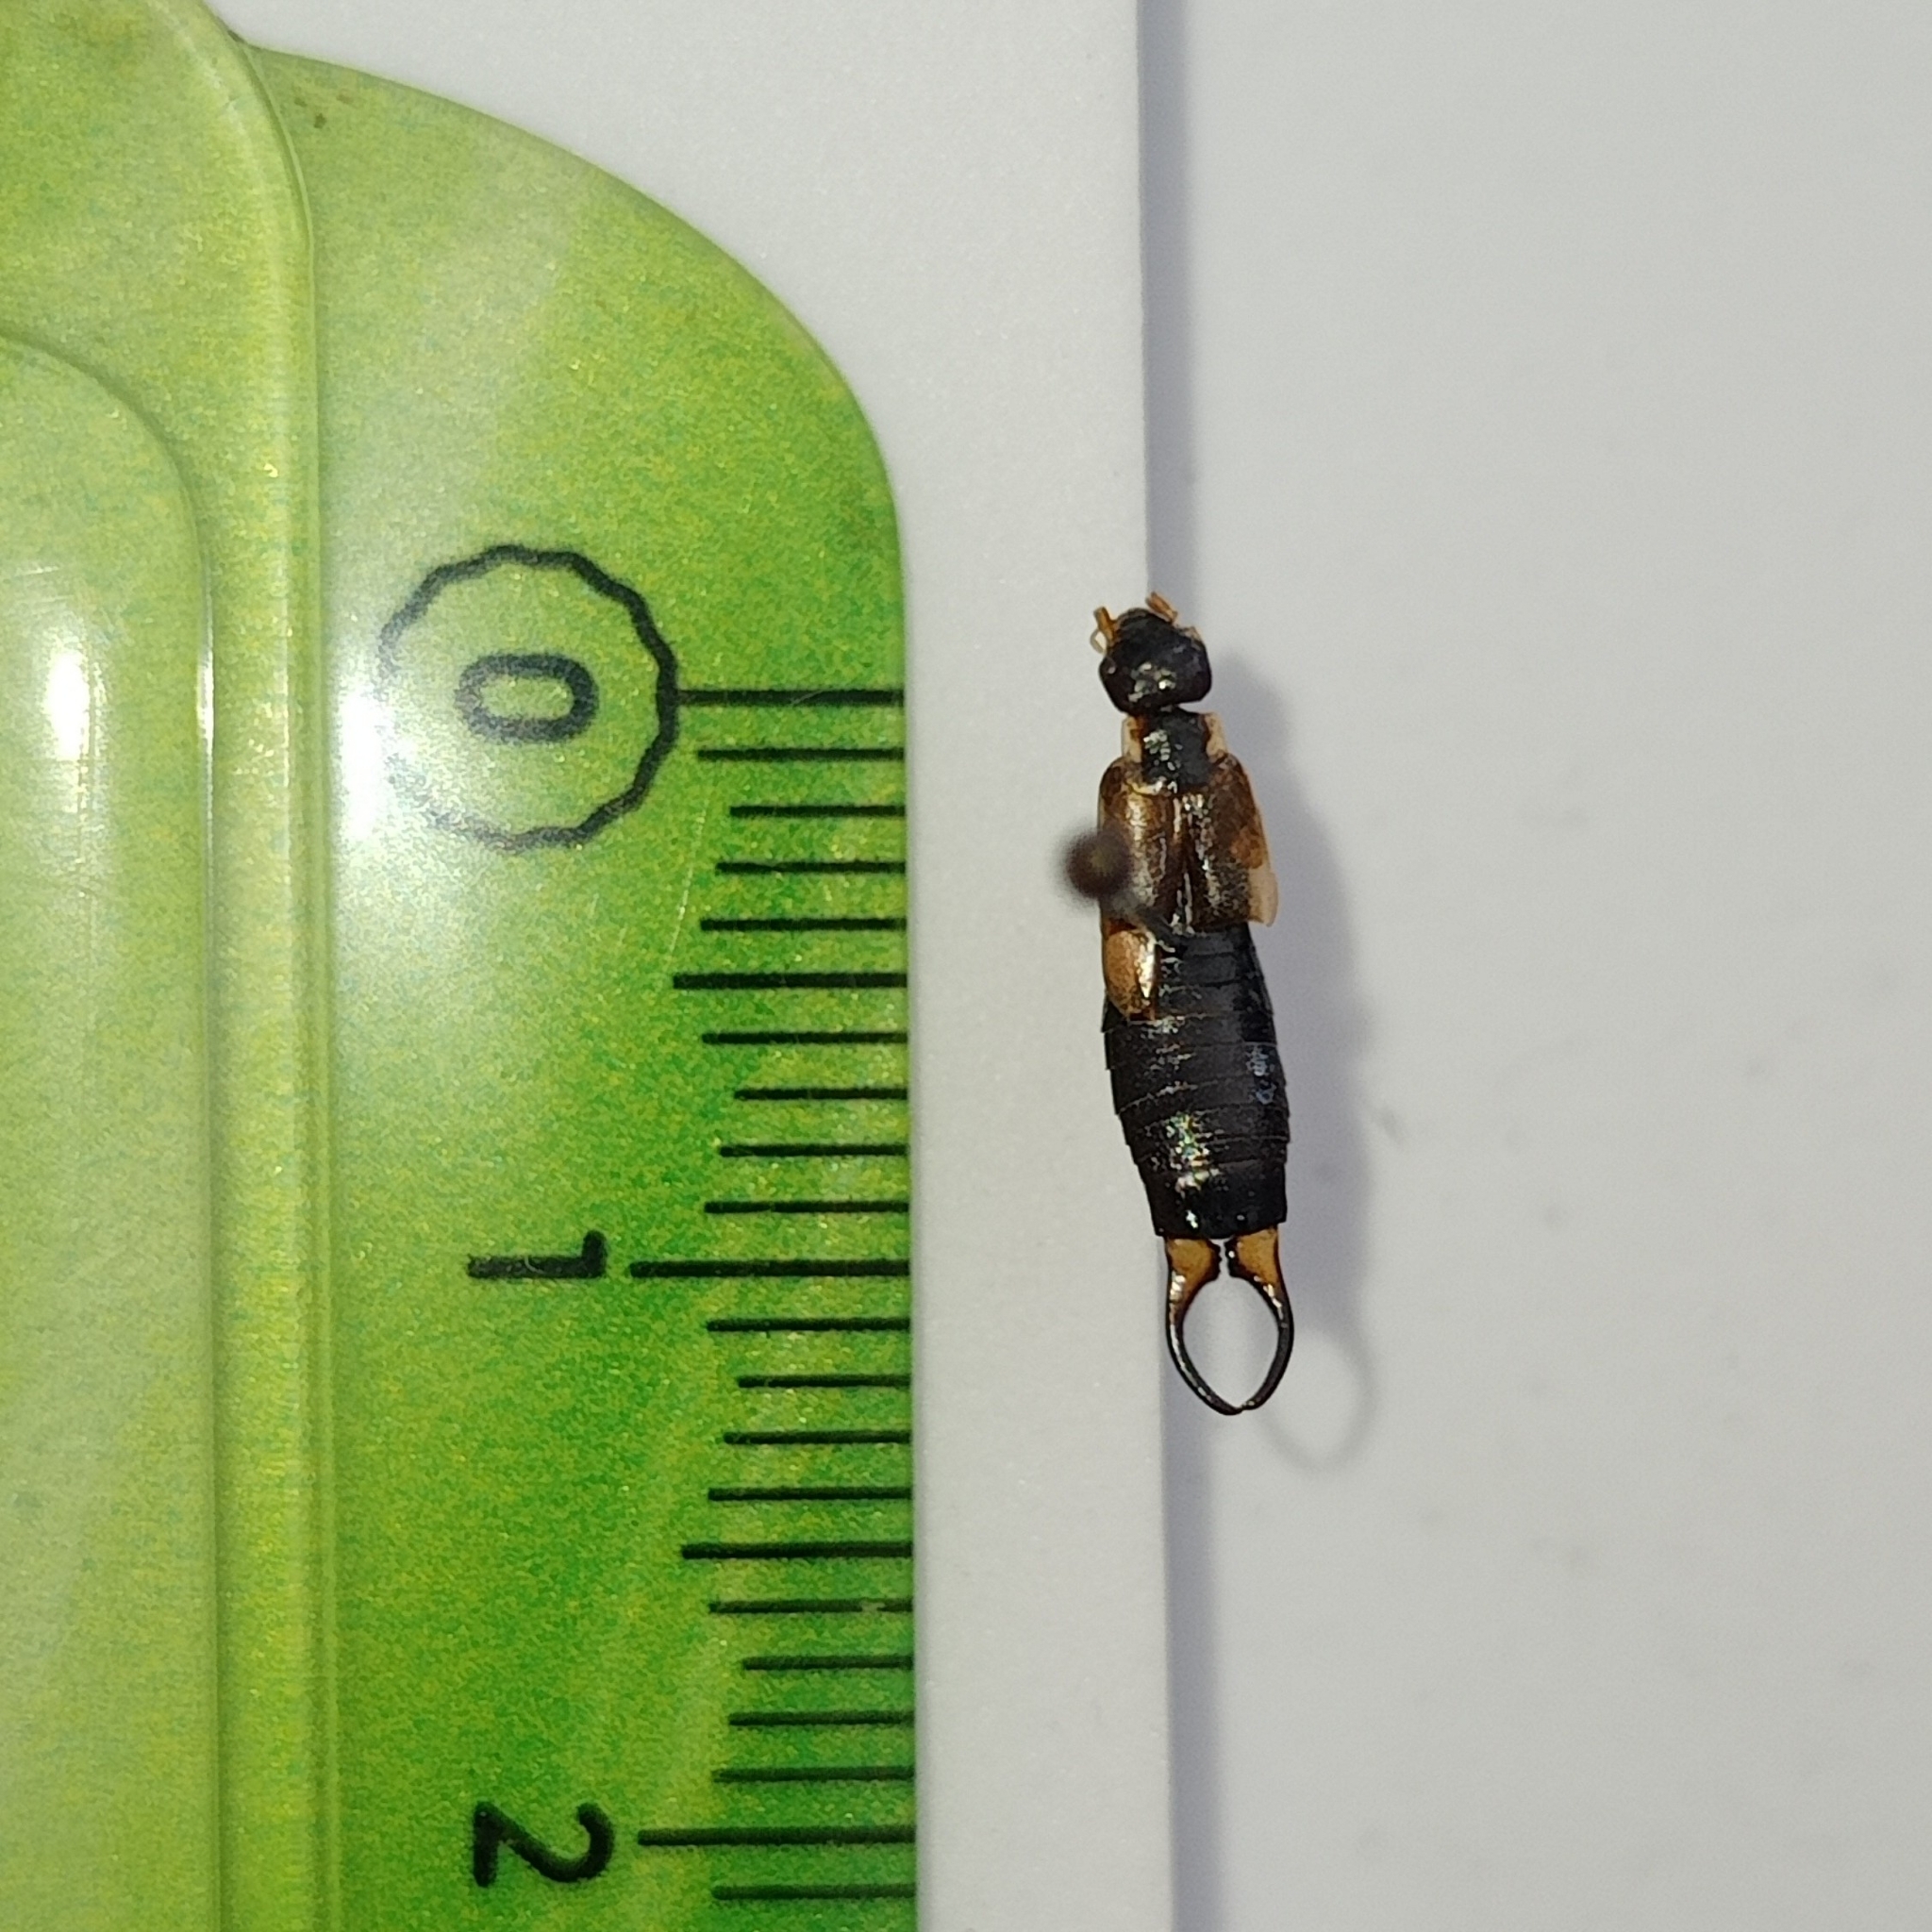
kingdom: Animalia
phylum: Arthropoda
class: Insecta
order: Dermaptera
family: Forficulidae
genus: Forficula
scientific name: Forficula lurida
